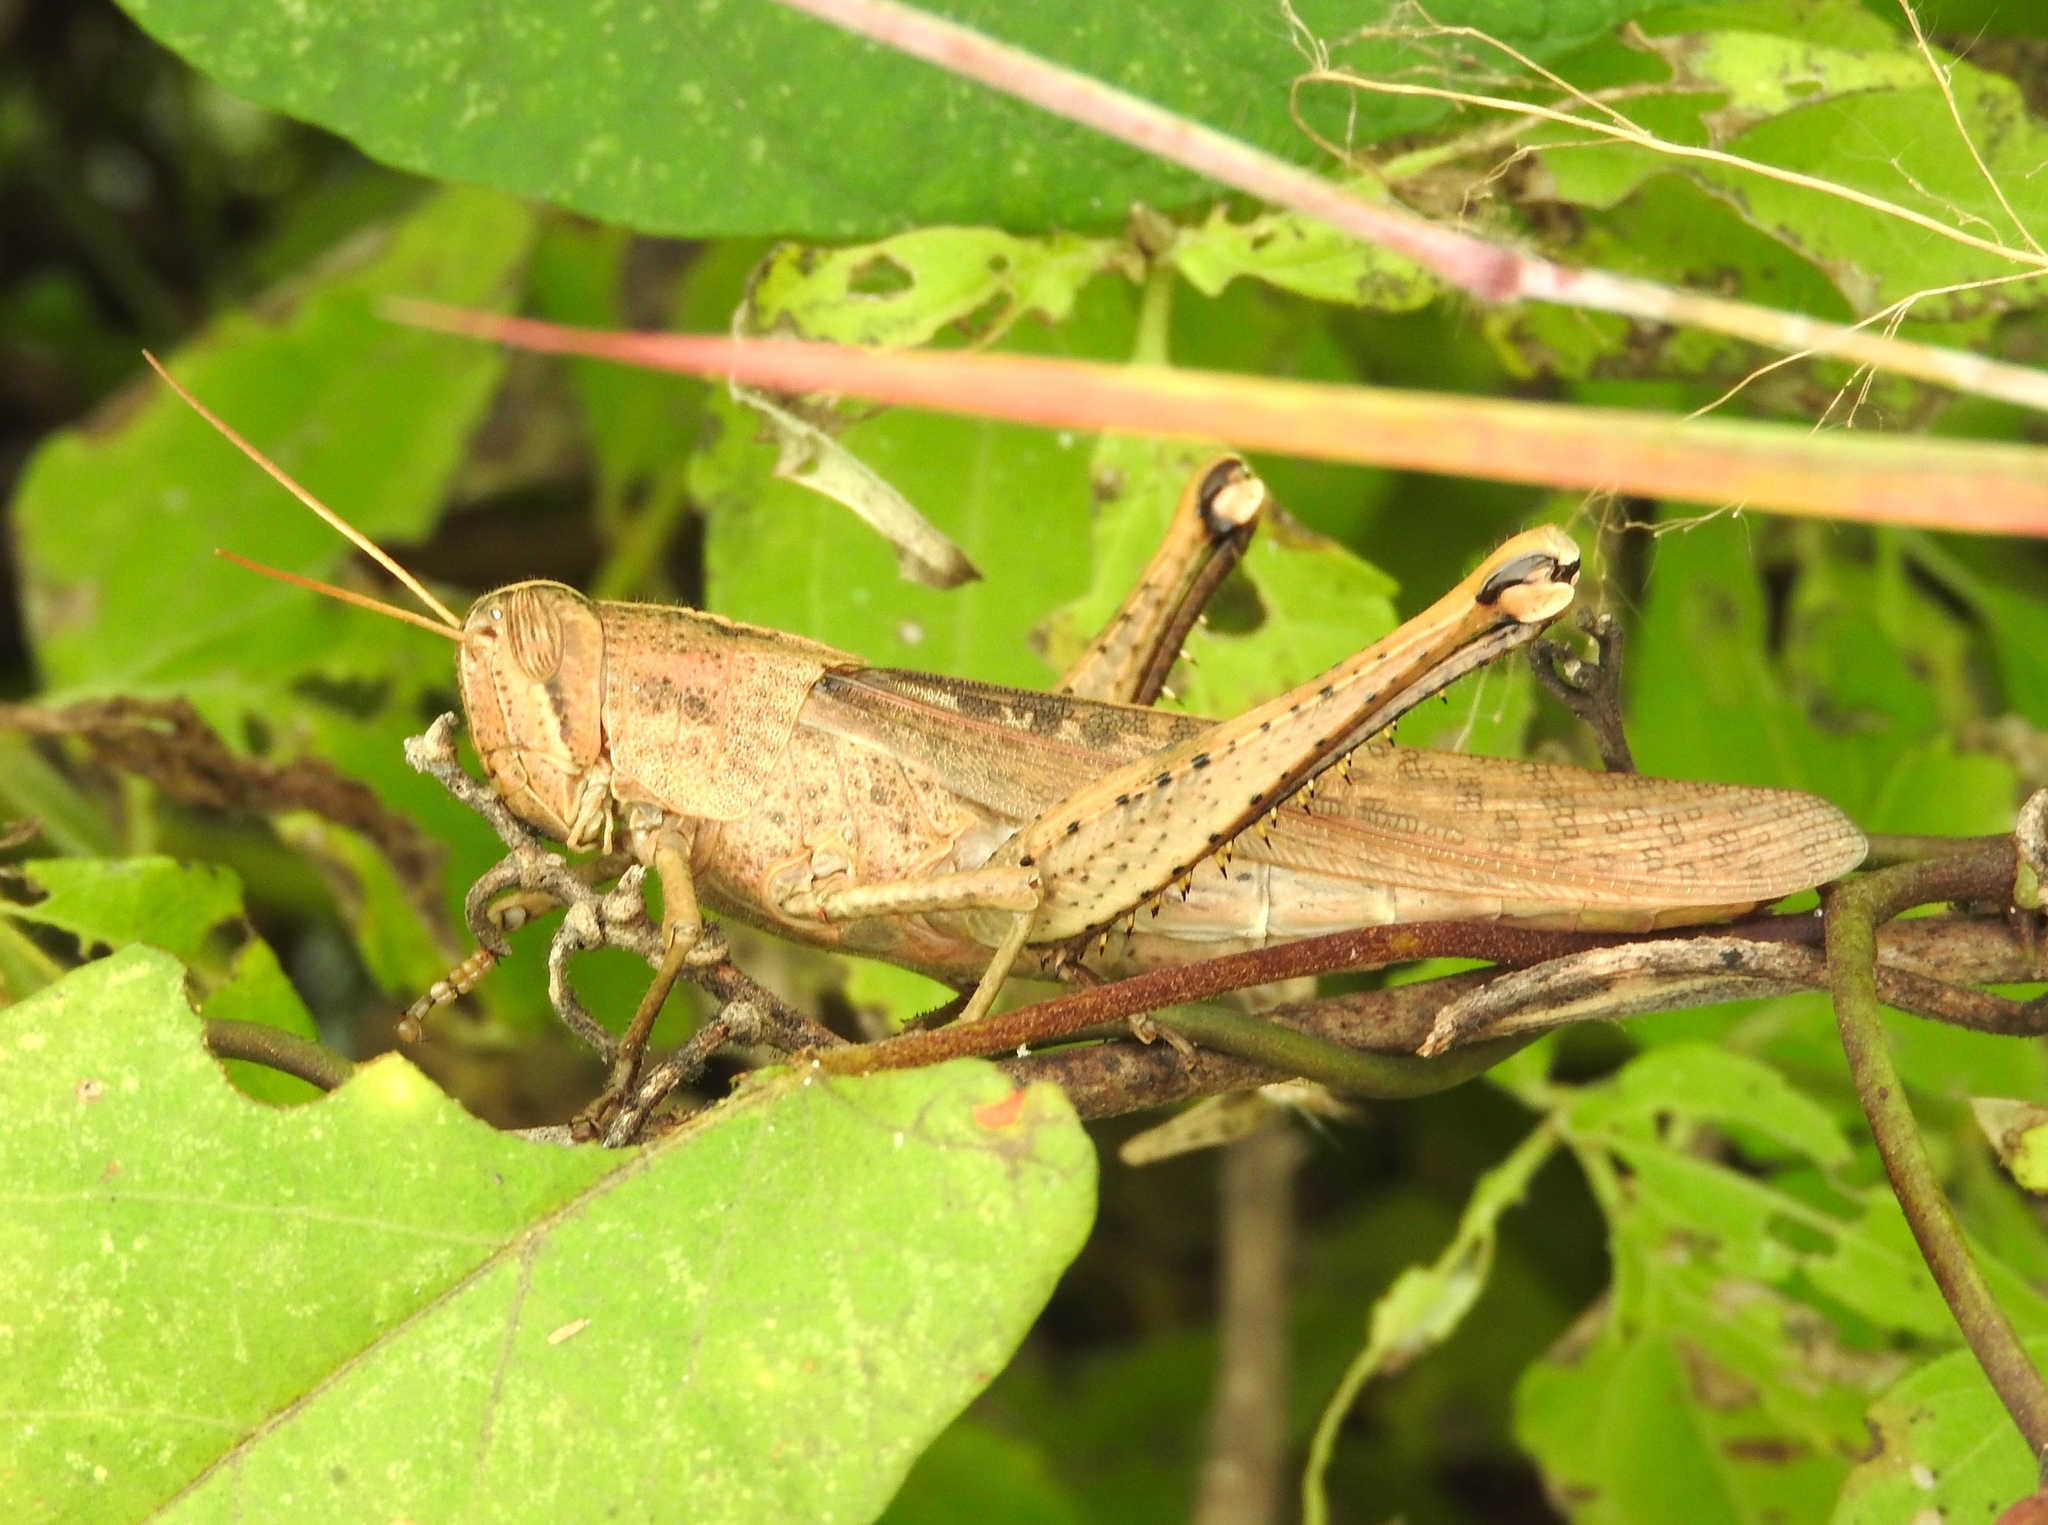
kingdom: Animalia
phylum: Arthropoda
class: Insecta
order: Orthoptera
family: Acrididae
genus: Schistocerca
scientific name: Schistocerca
